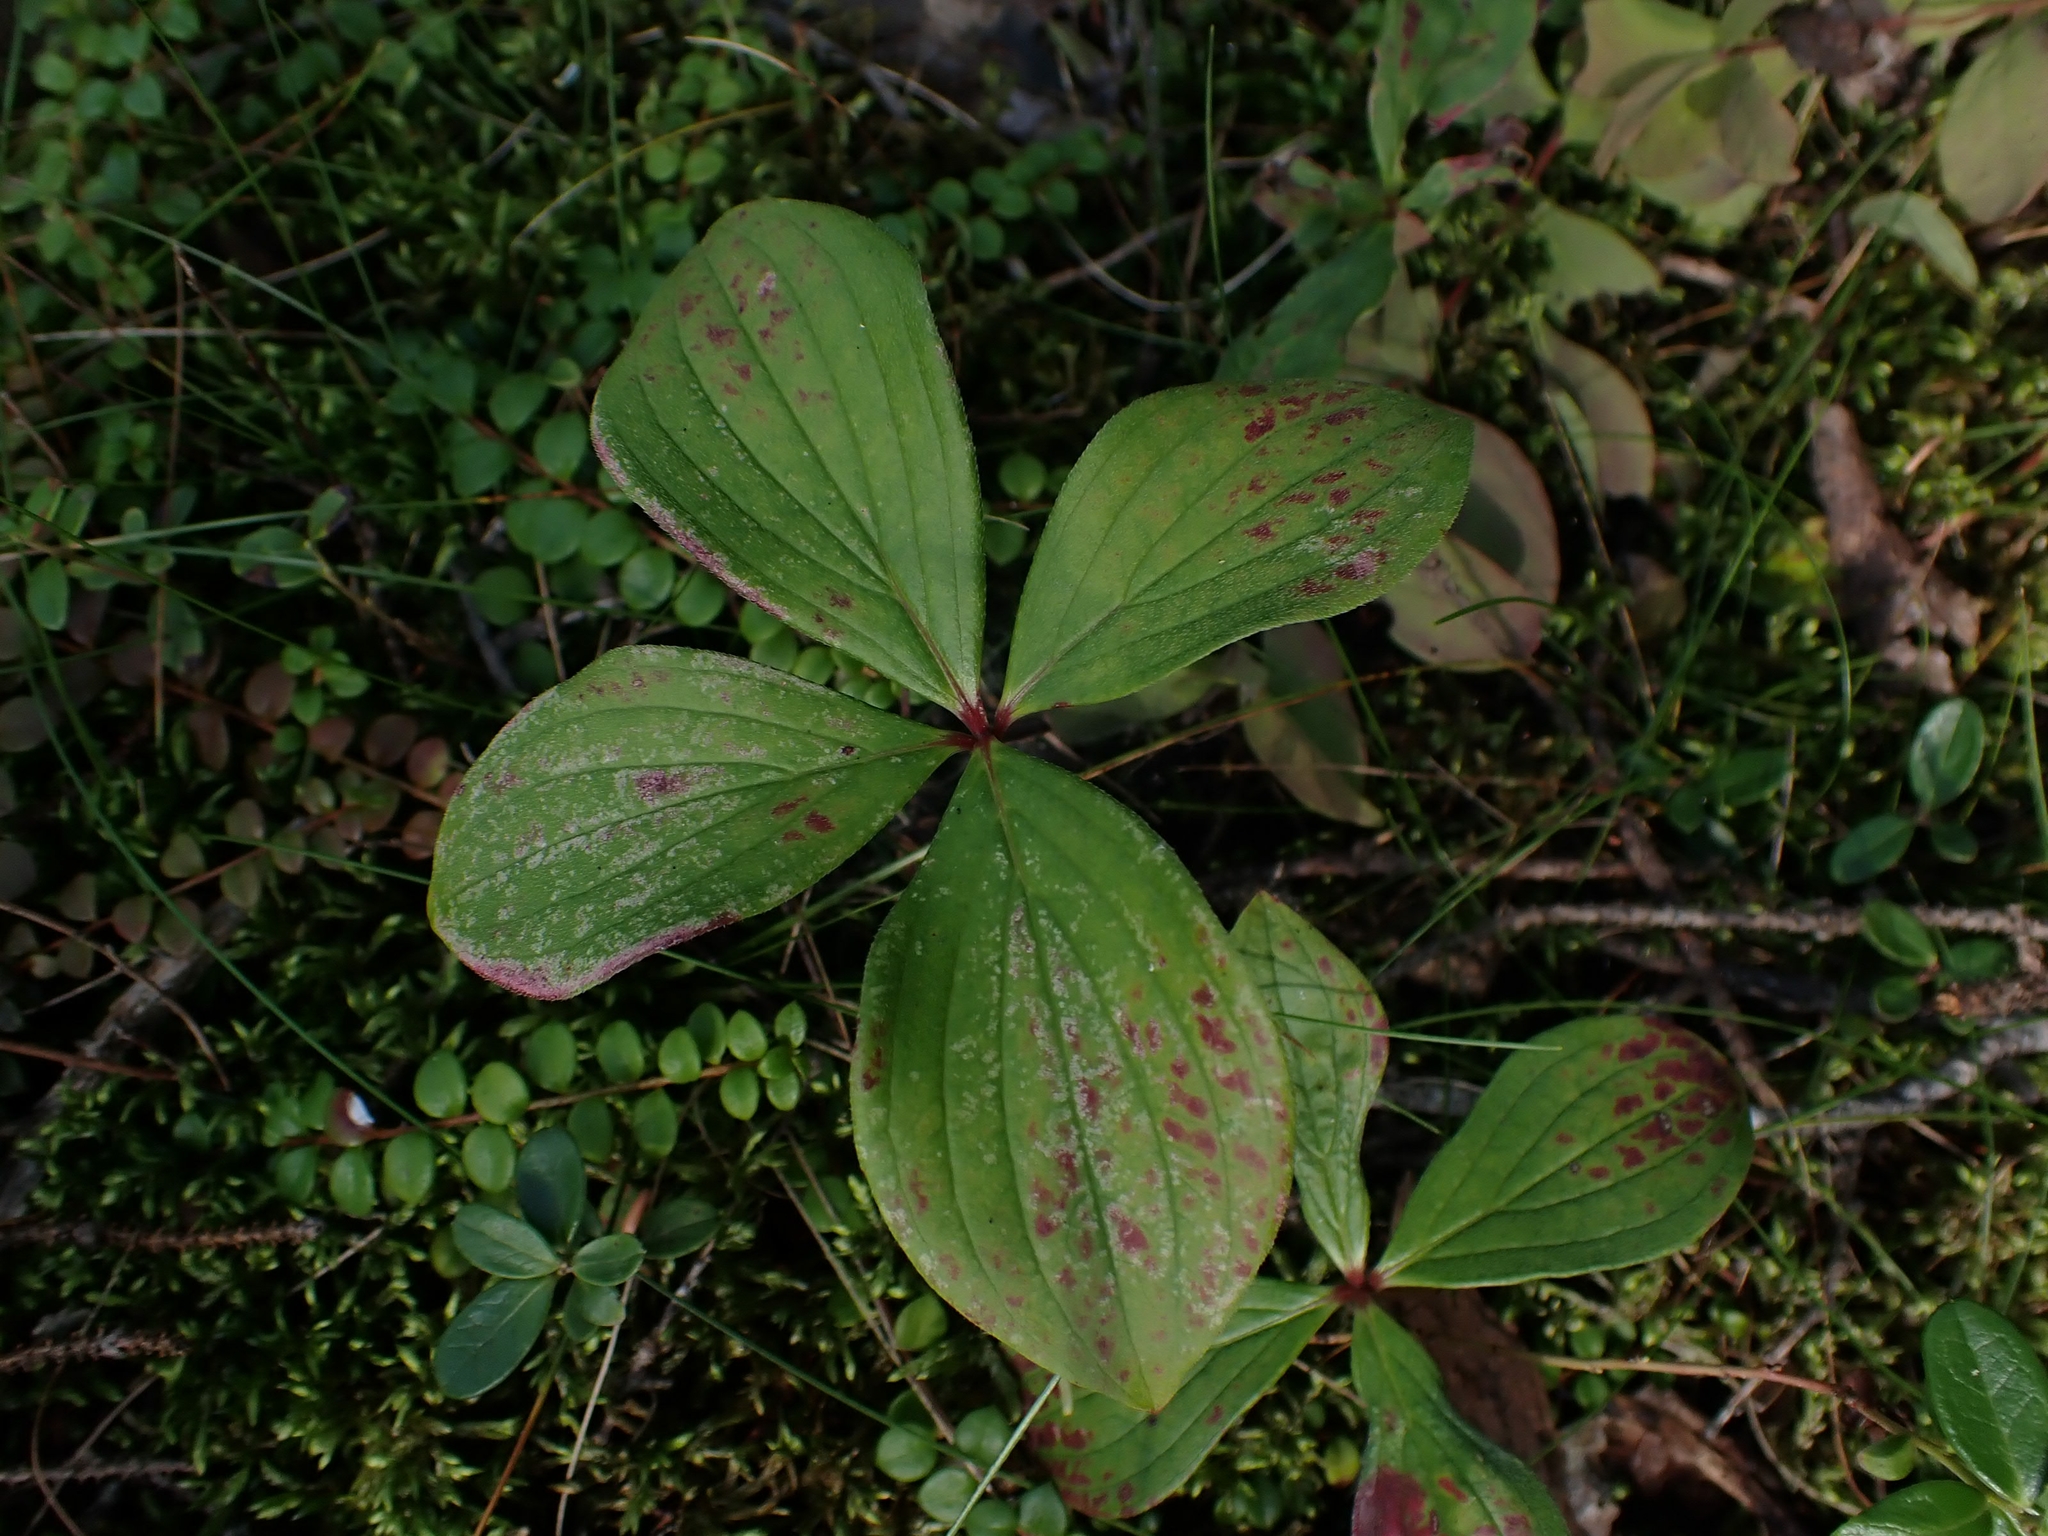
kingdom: Plantae
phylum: Tracheophyta
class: Magnoliopsida
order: Cornales
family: Cornaceae
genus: Cornus
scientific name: Cornus canadensis
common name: Creeping dogwood
